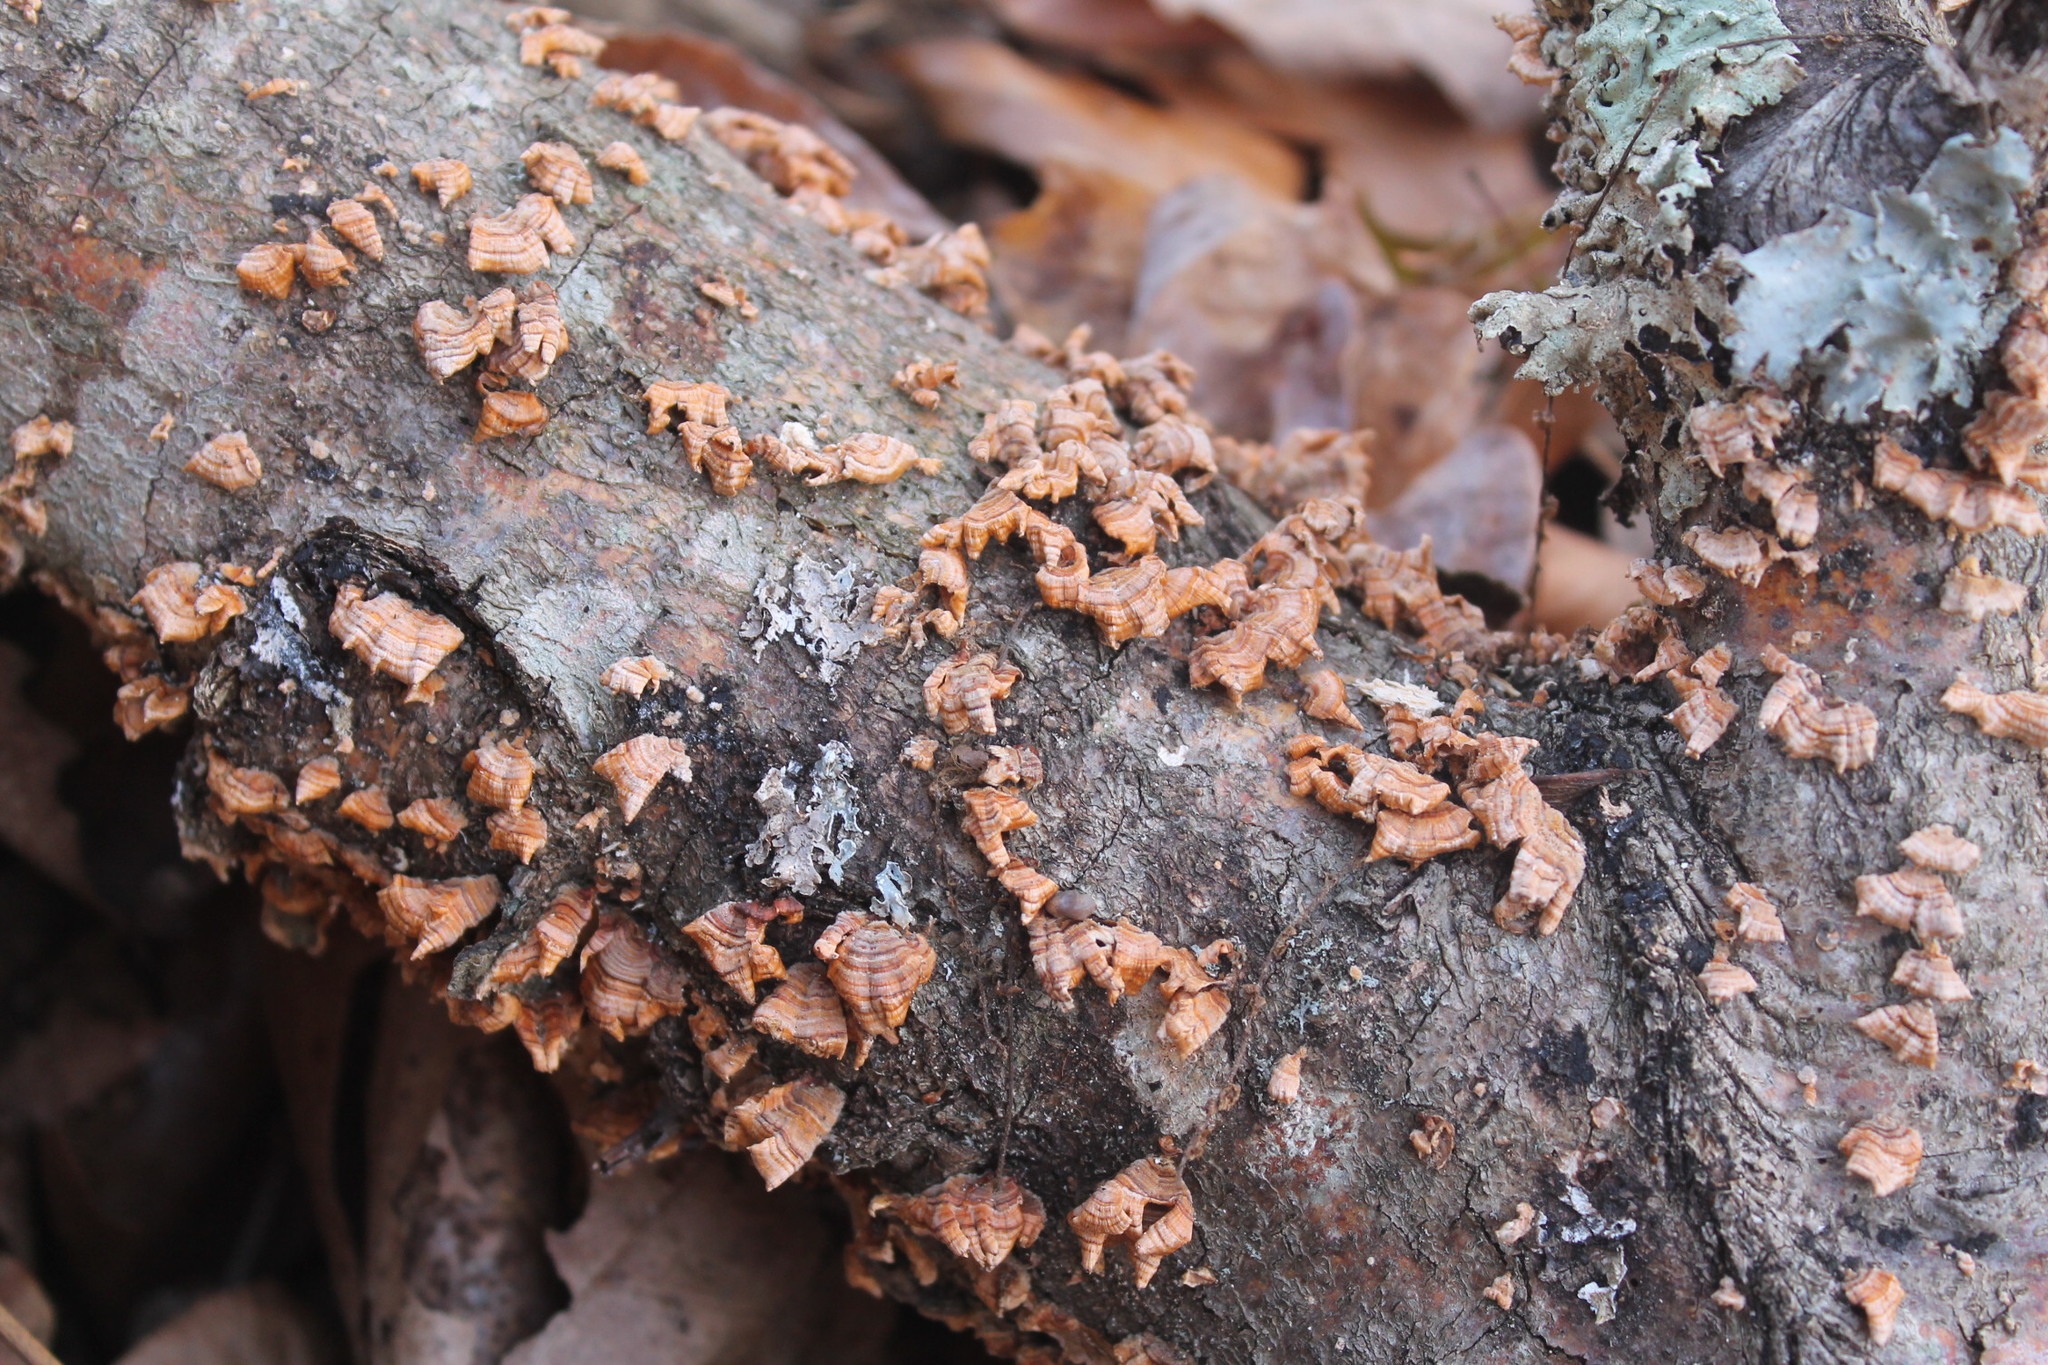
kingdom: Fungi
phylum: Basidiomycota
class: Agaricomycetes
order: Russulales
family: Stereaceae
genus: Stereum
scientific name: Stereum complicatum
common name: Crowded parchment
